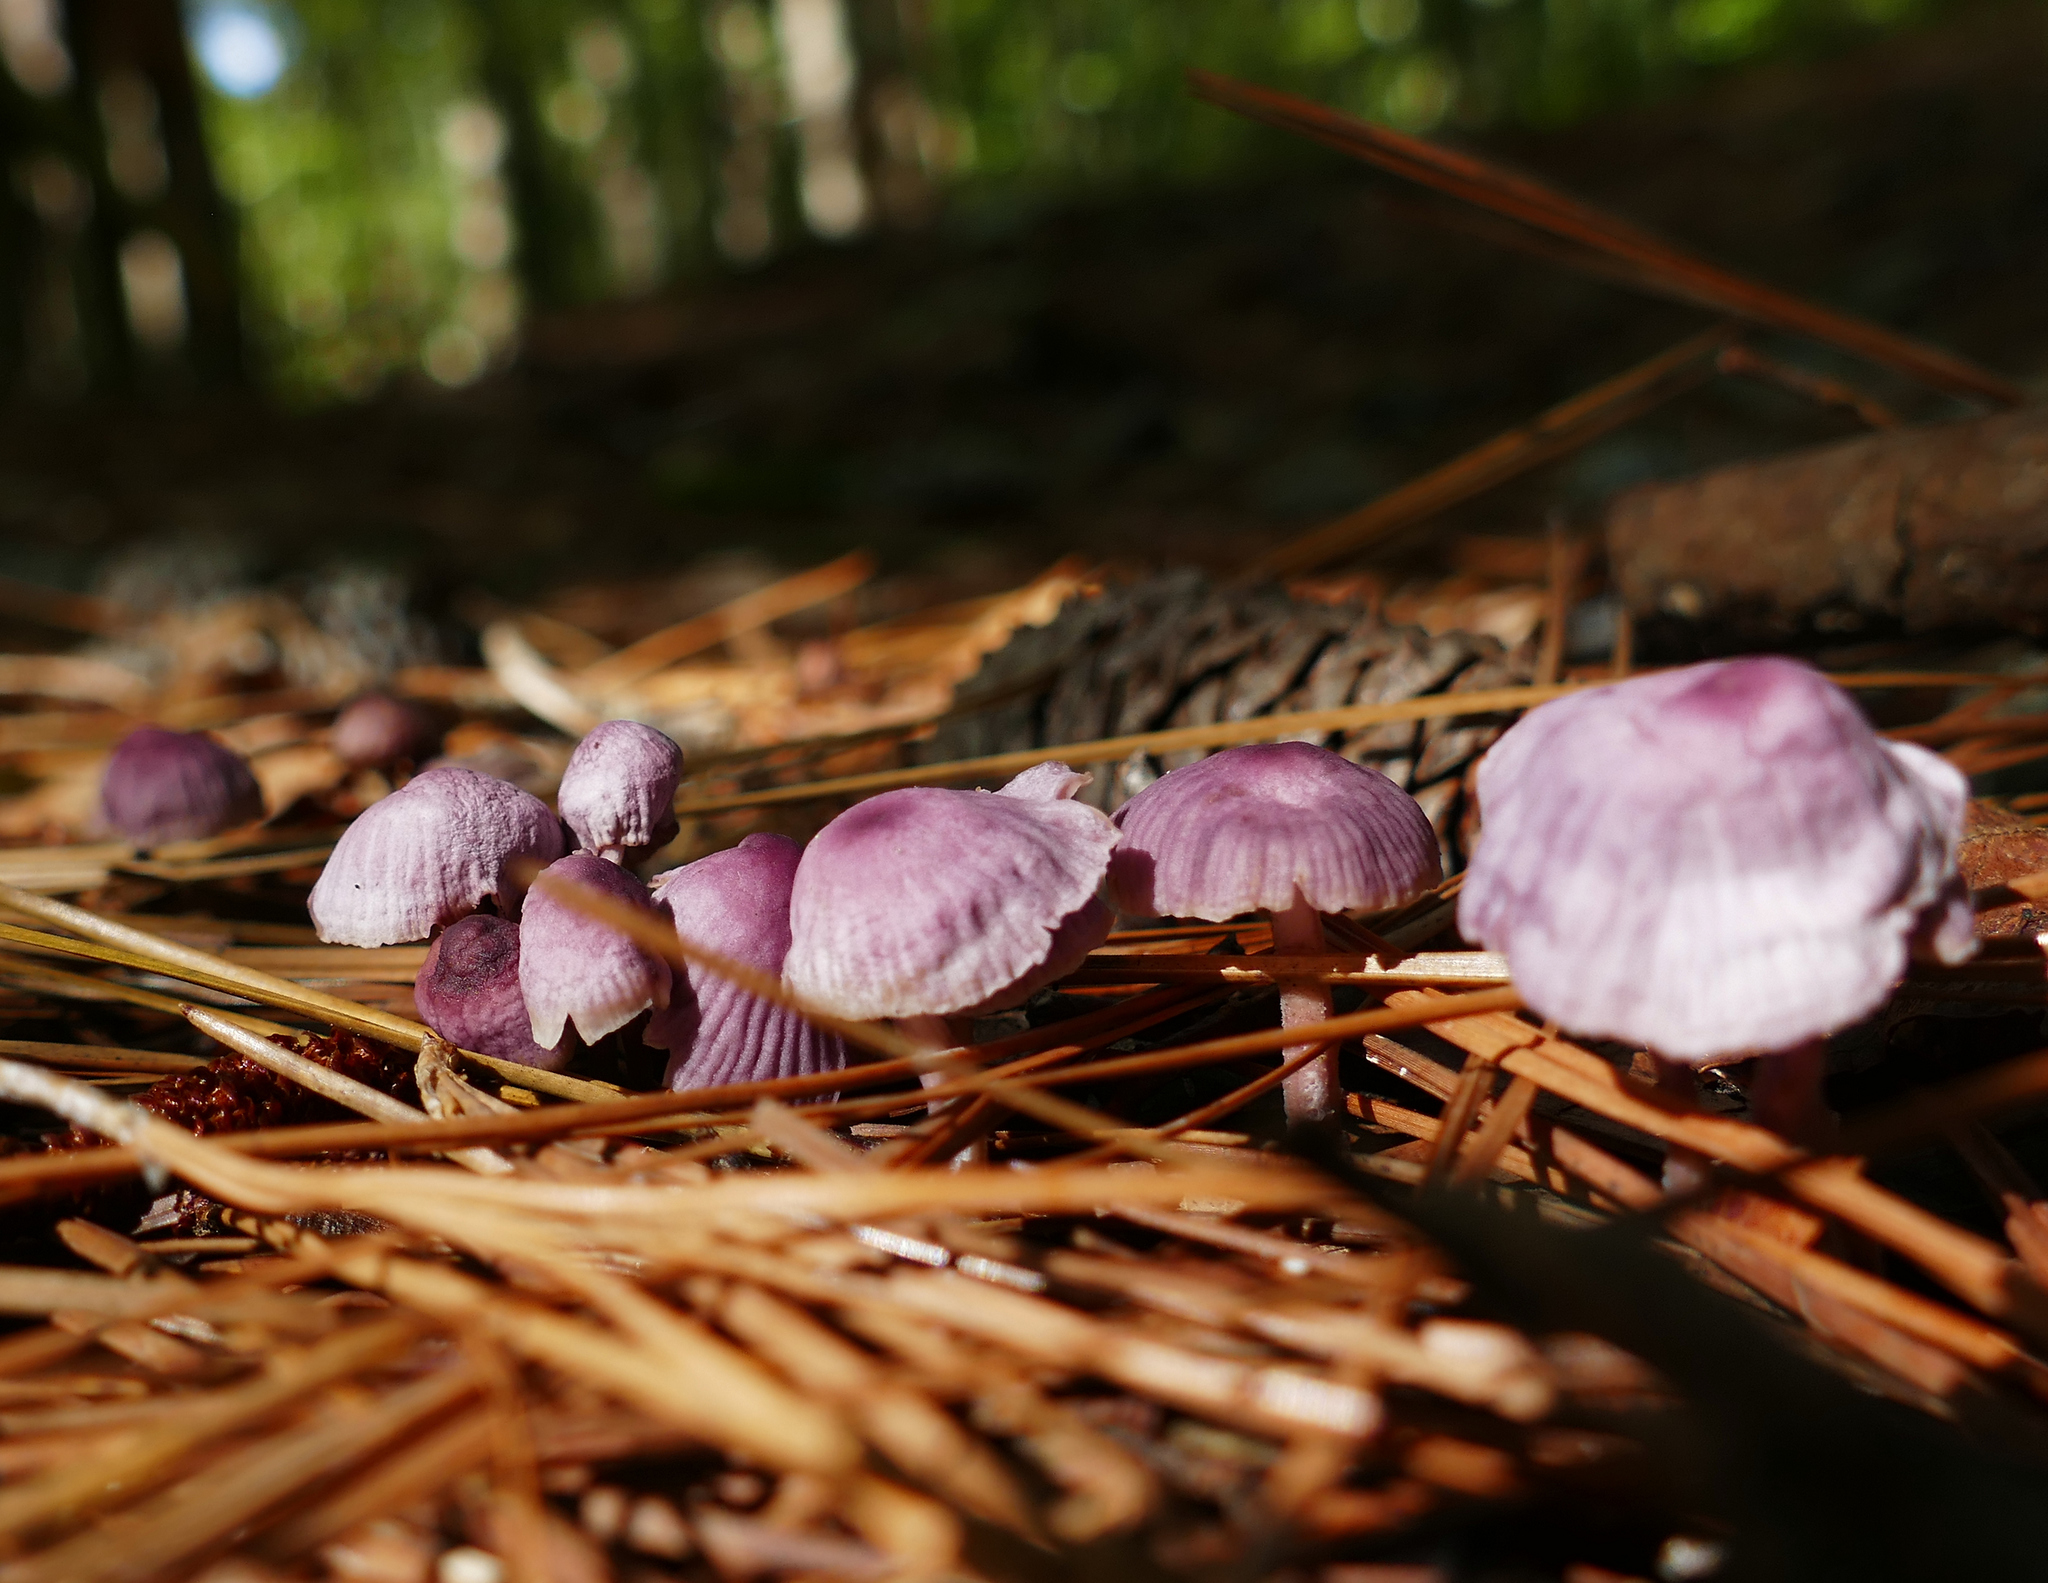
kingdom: Fungi
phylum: Basidiomycota
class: Agaricomycetes
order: Agaricales
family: Omphalotaceae
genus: Gymnopus
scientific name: Gymnopus iocephalus
